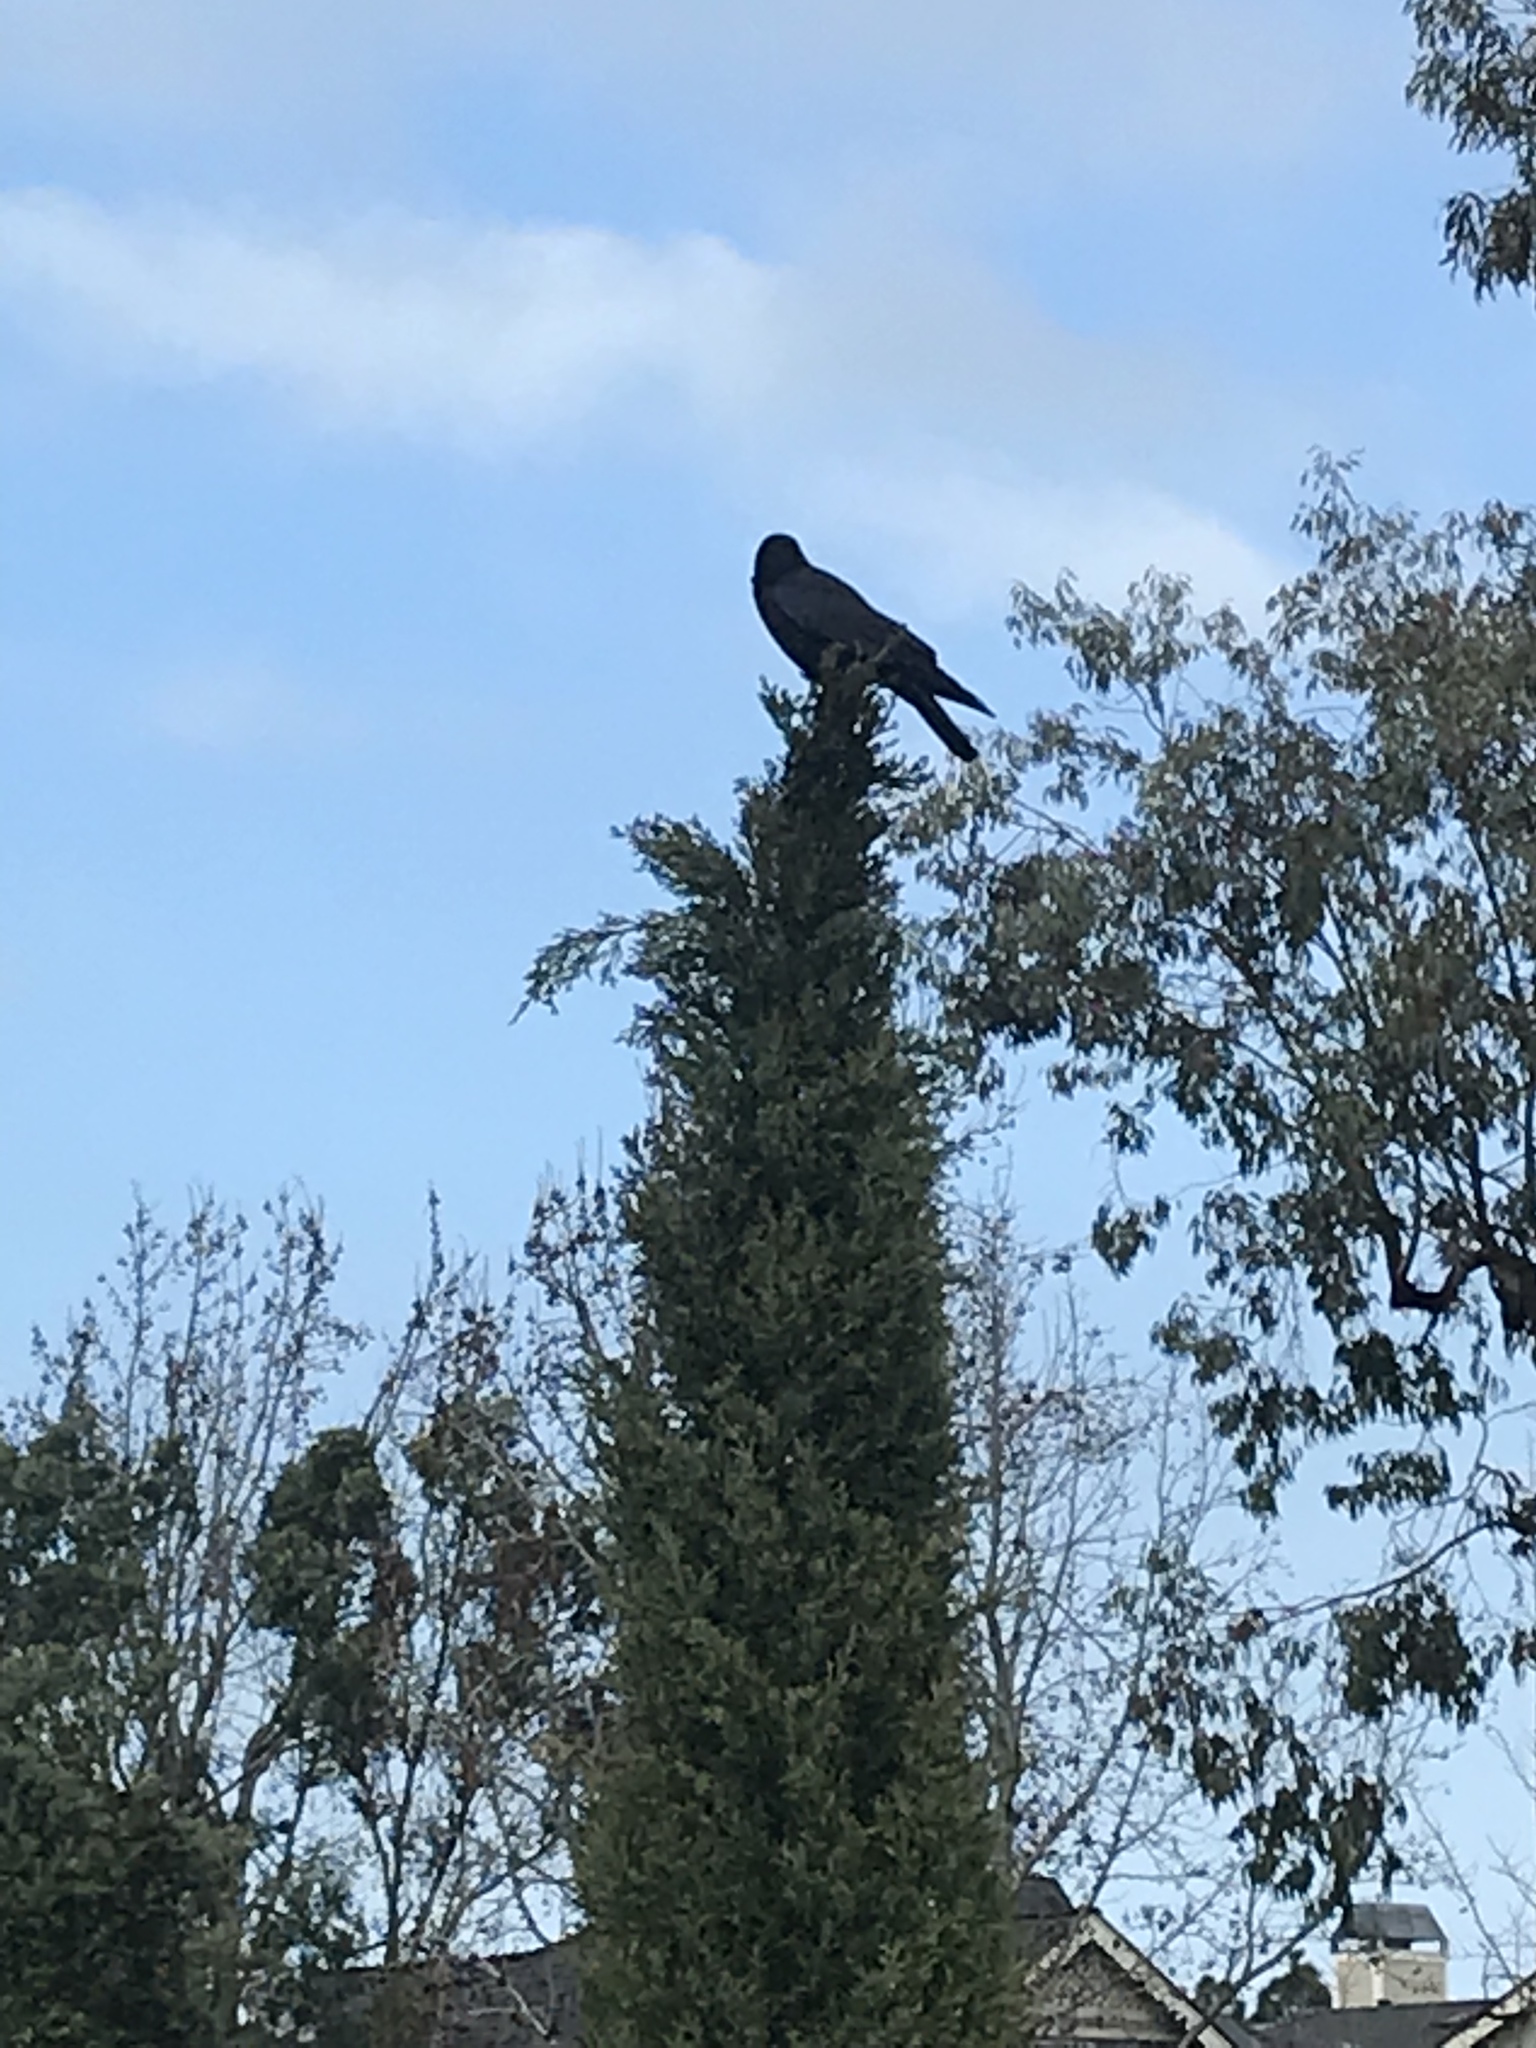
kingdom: Animalia
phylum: Chordata
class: Aves
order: Passeriformes
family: Corvidae
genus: Corvus
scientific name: Corvus brachyrhynchos
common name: American crow
